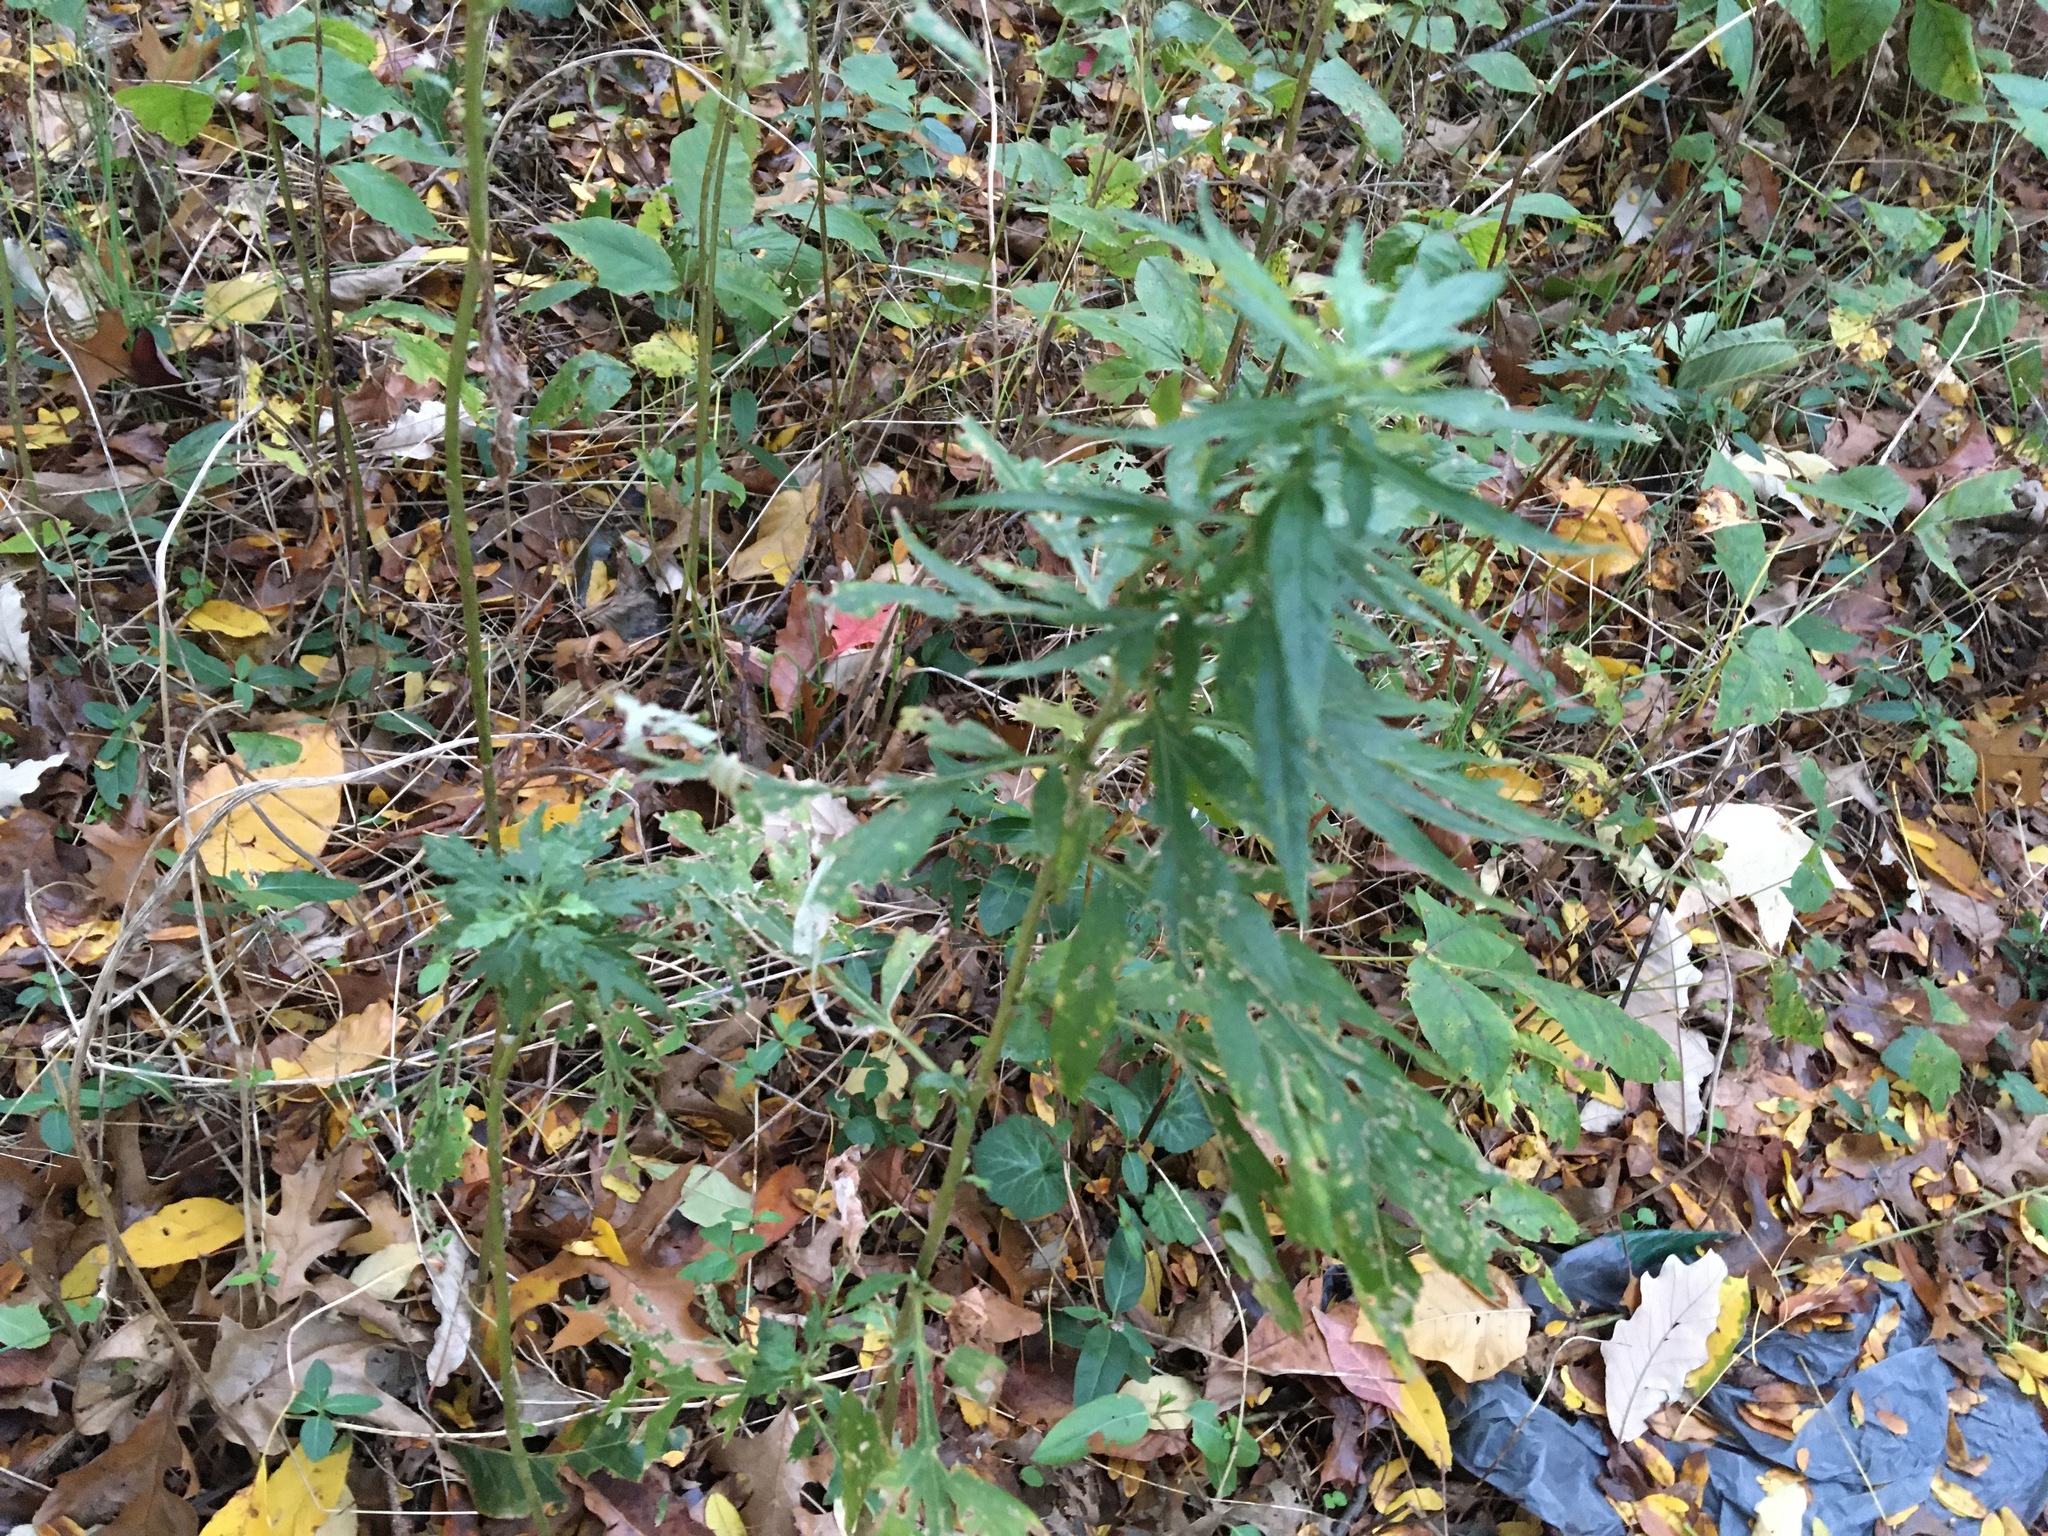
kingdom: Plantae
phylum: Tracheophyta
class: Magnoliopsida
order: Asterales
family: Asteraceae
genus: Artemisia
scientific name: Artemisia vulgaris
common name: Mugwort
